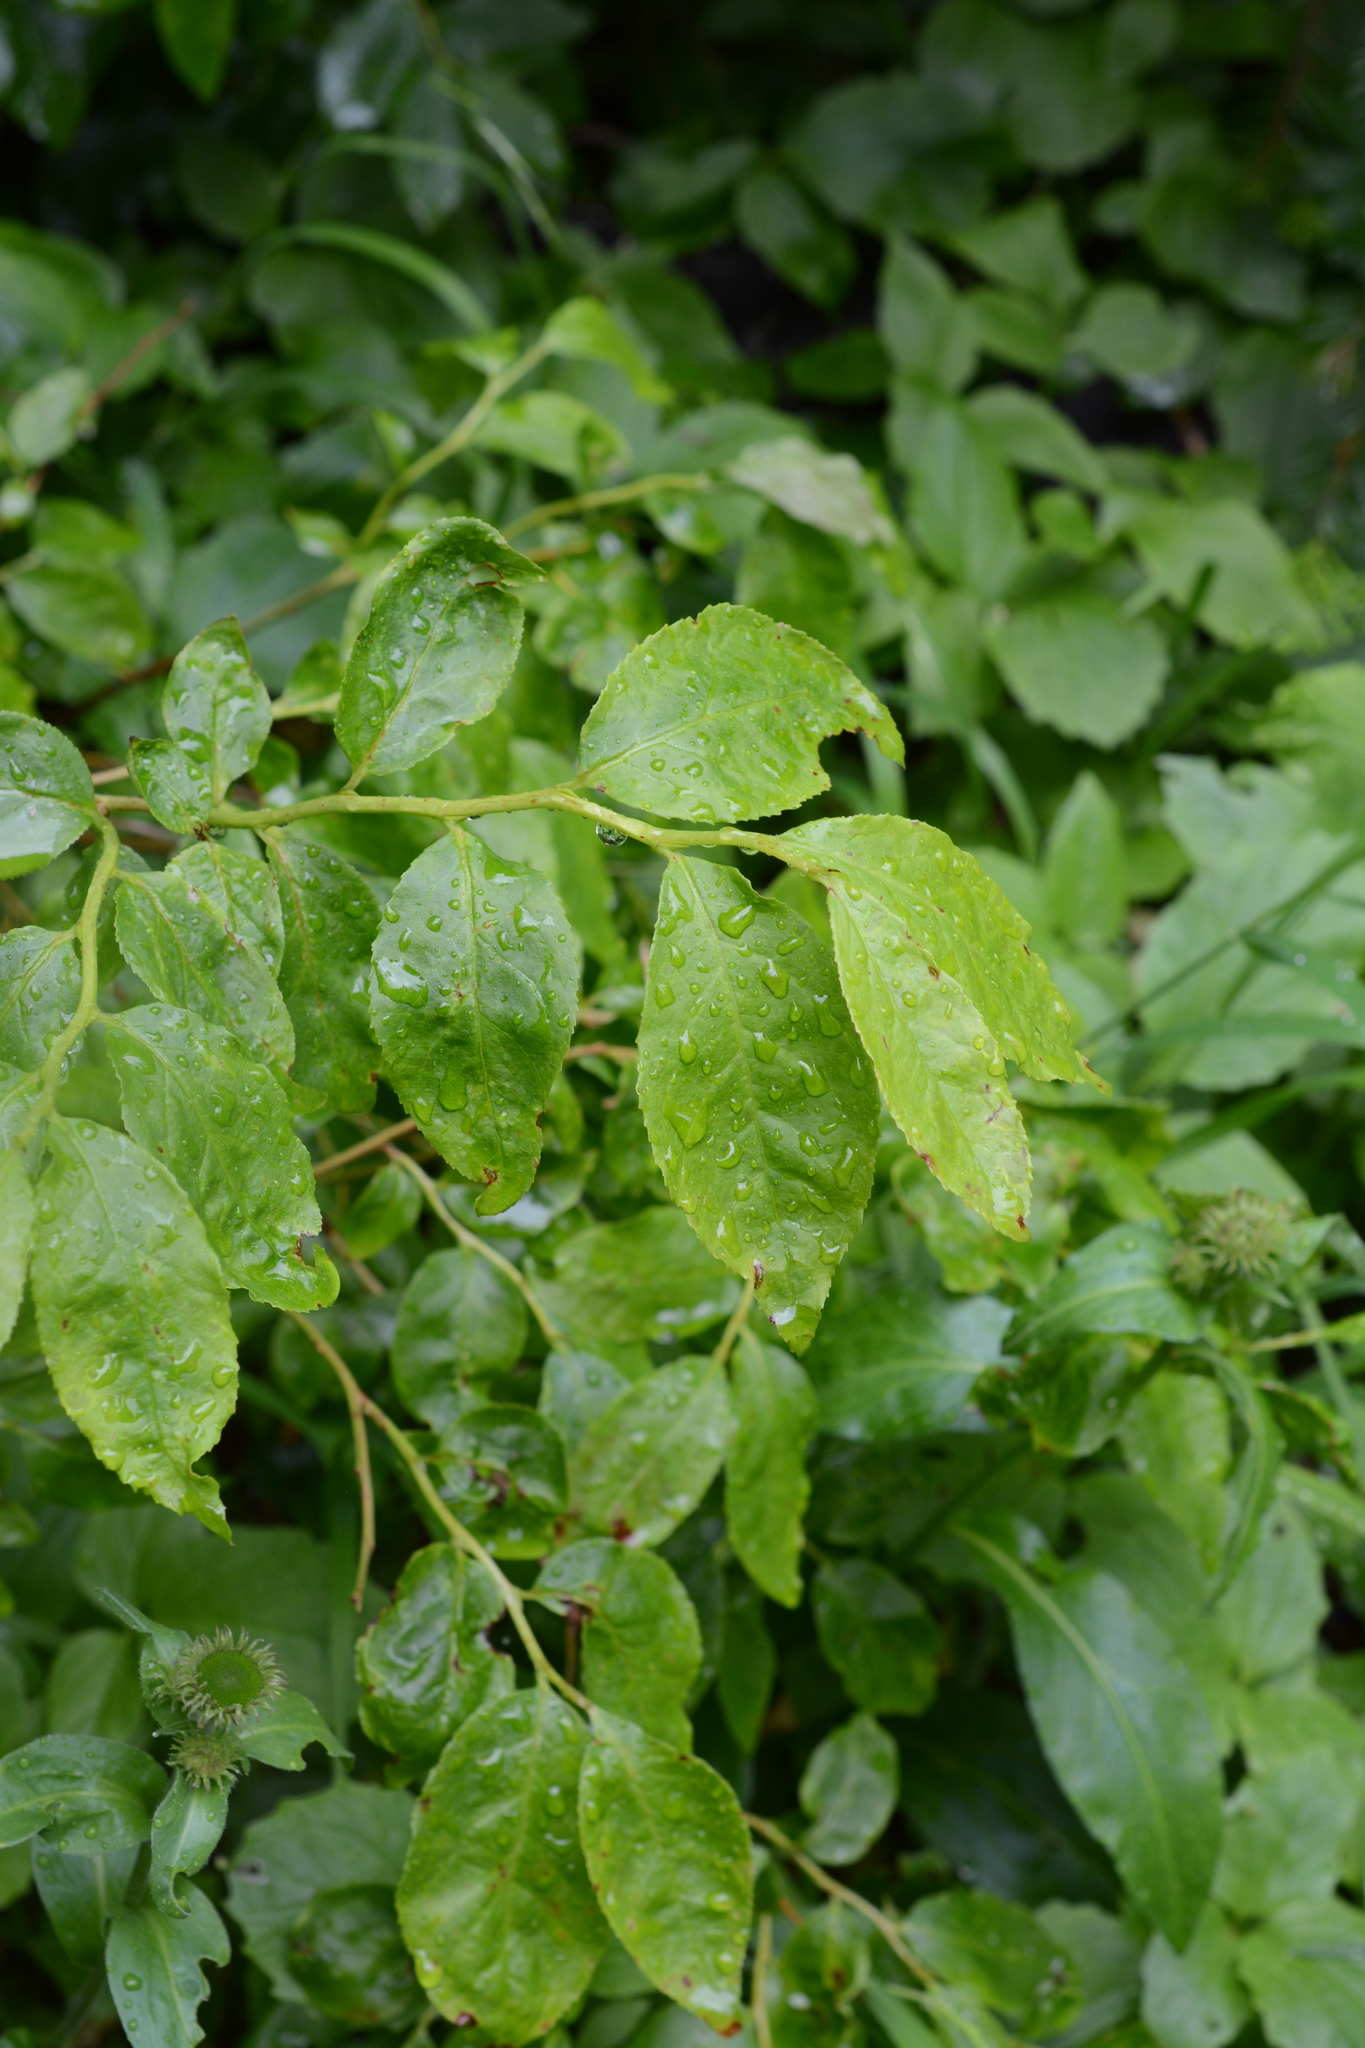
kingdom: Plantae
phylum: Tracheophyta
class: Magnoliopsida
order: Ericales
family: Ericaceae
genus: Vaccinium
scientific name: Vaccinium membranaceum
